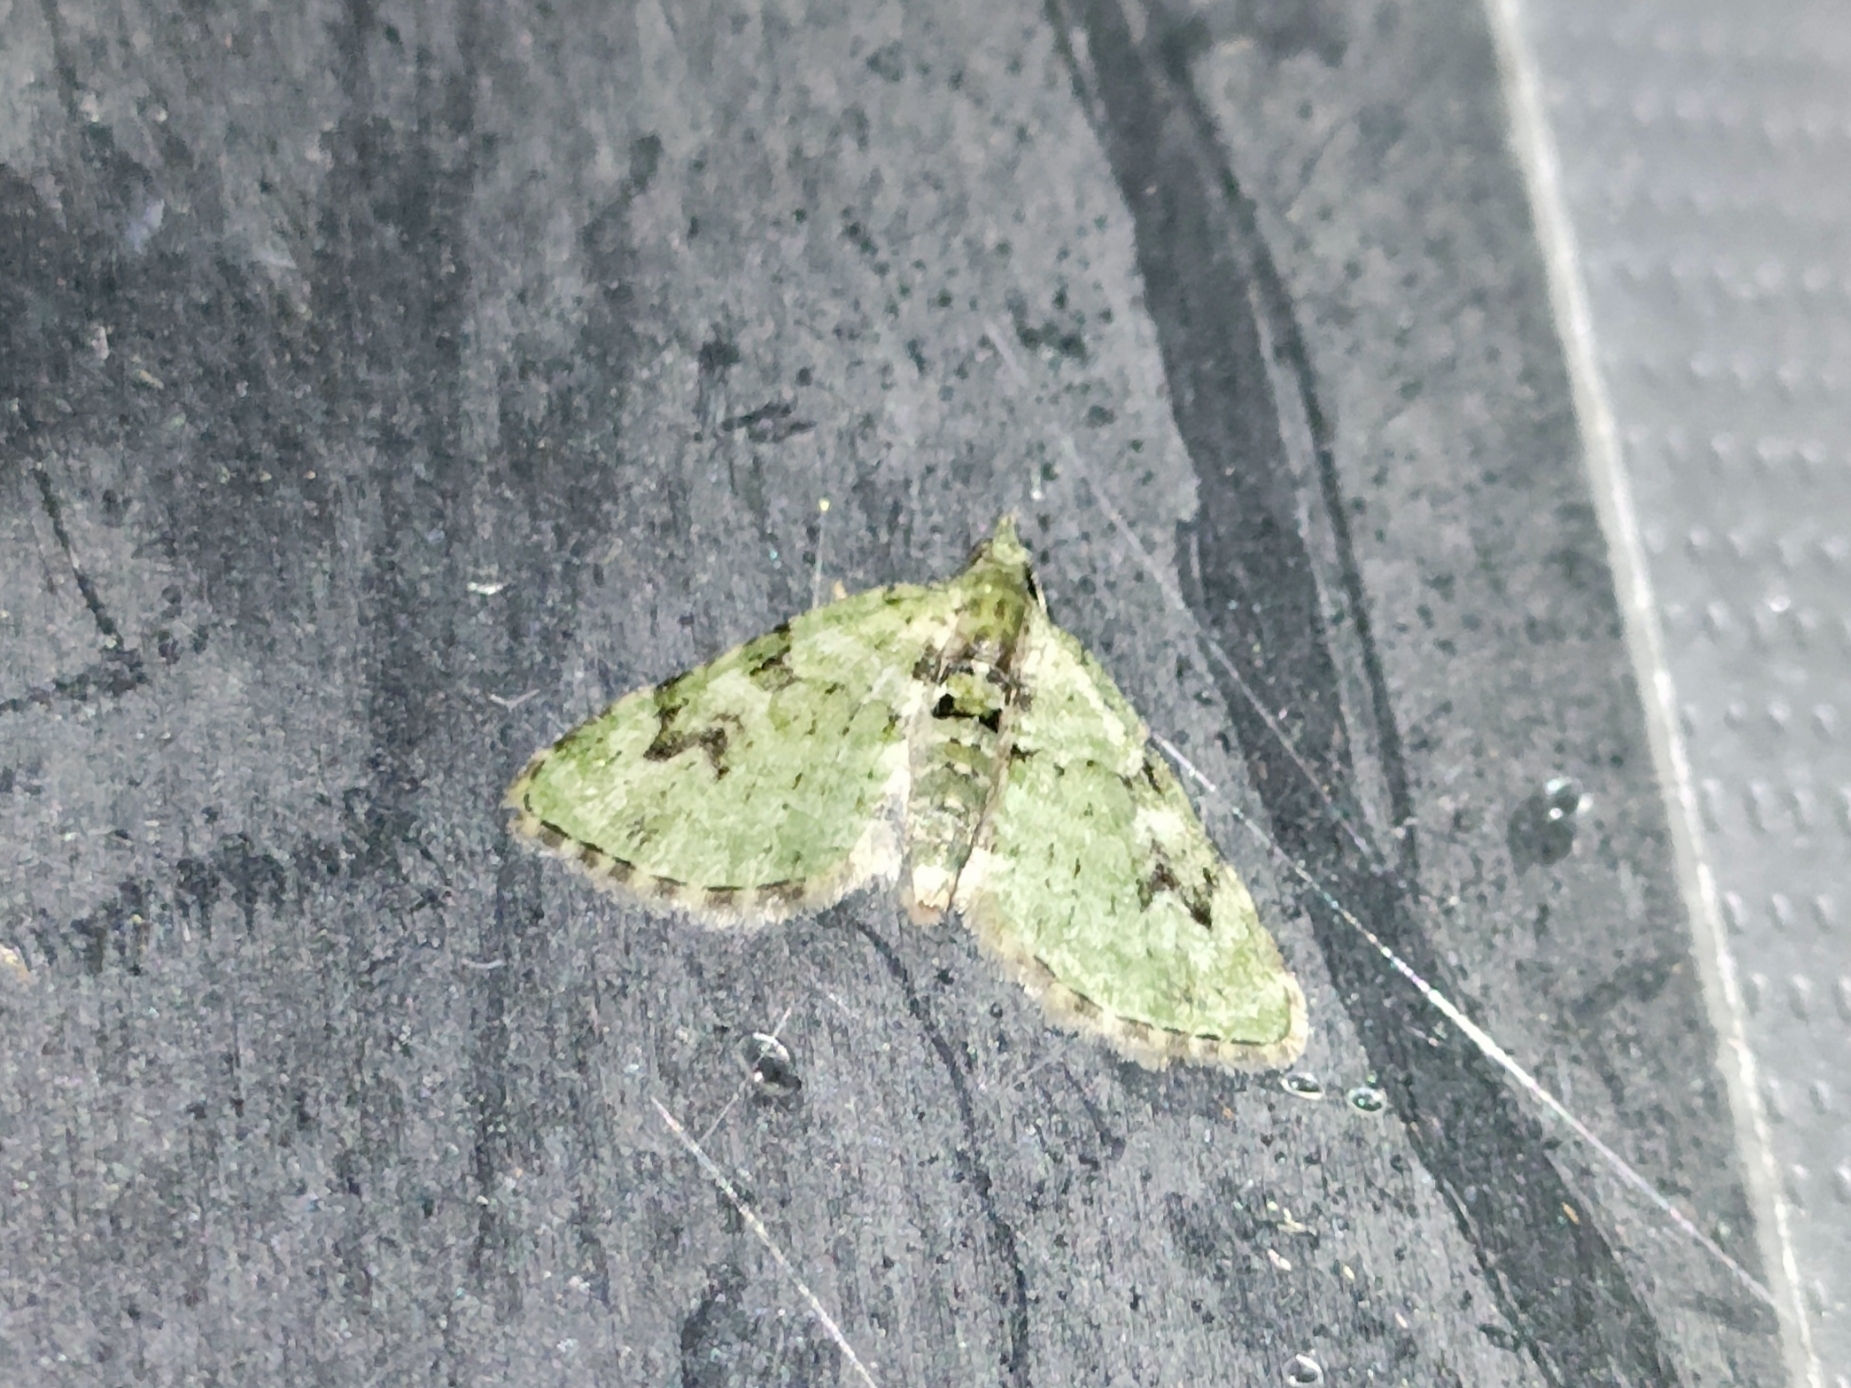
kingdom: Animalia
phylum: Arthropoda
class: Insecta
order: Lepidoptera
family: Geometridae
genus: Chloroclystis
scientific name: Chloroclystis v-ata
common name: V-pug
